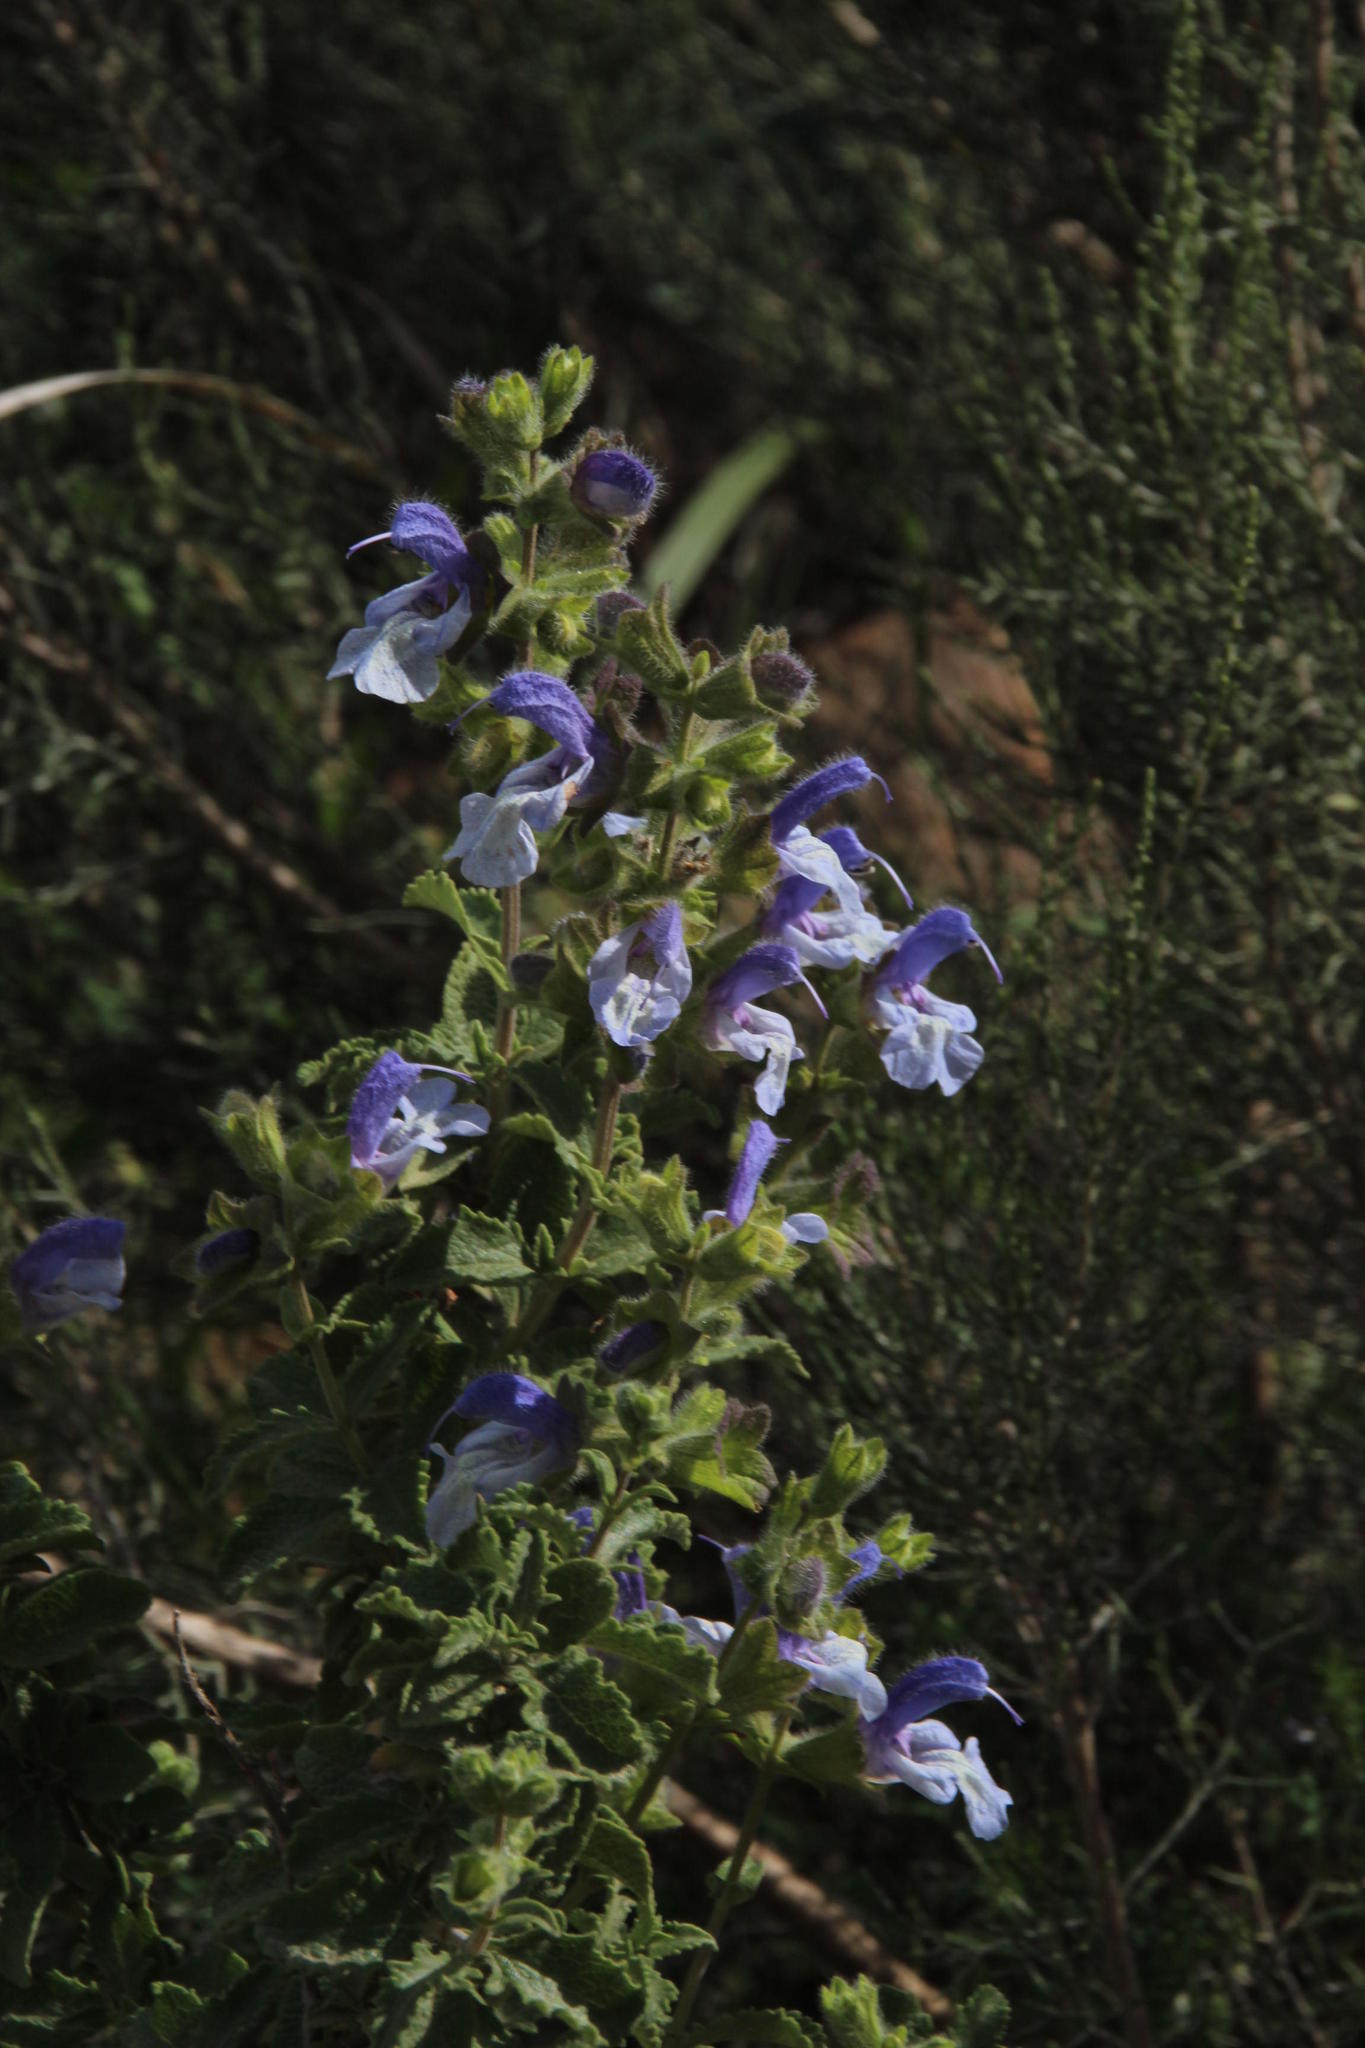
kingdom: Plantae
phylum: Tracheophyta
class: Magnoliopsida
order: Lamiales
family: Lamiaceae
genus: Salvia
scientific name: Salvia africana
